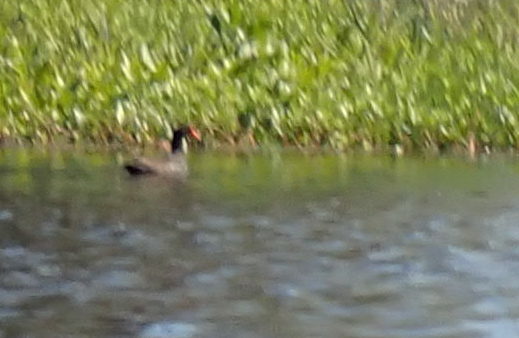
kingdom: Animalia
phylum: Chordata
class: Aves
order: Gruiformes
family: Rallidae
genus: Gallinula
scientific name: Gallinula chloropus
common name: Common moorhen
